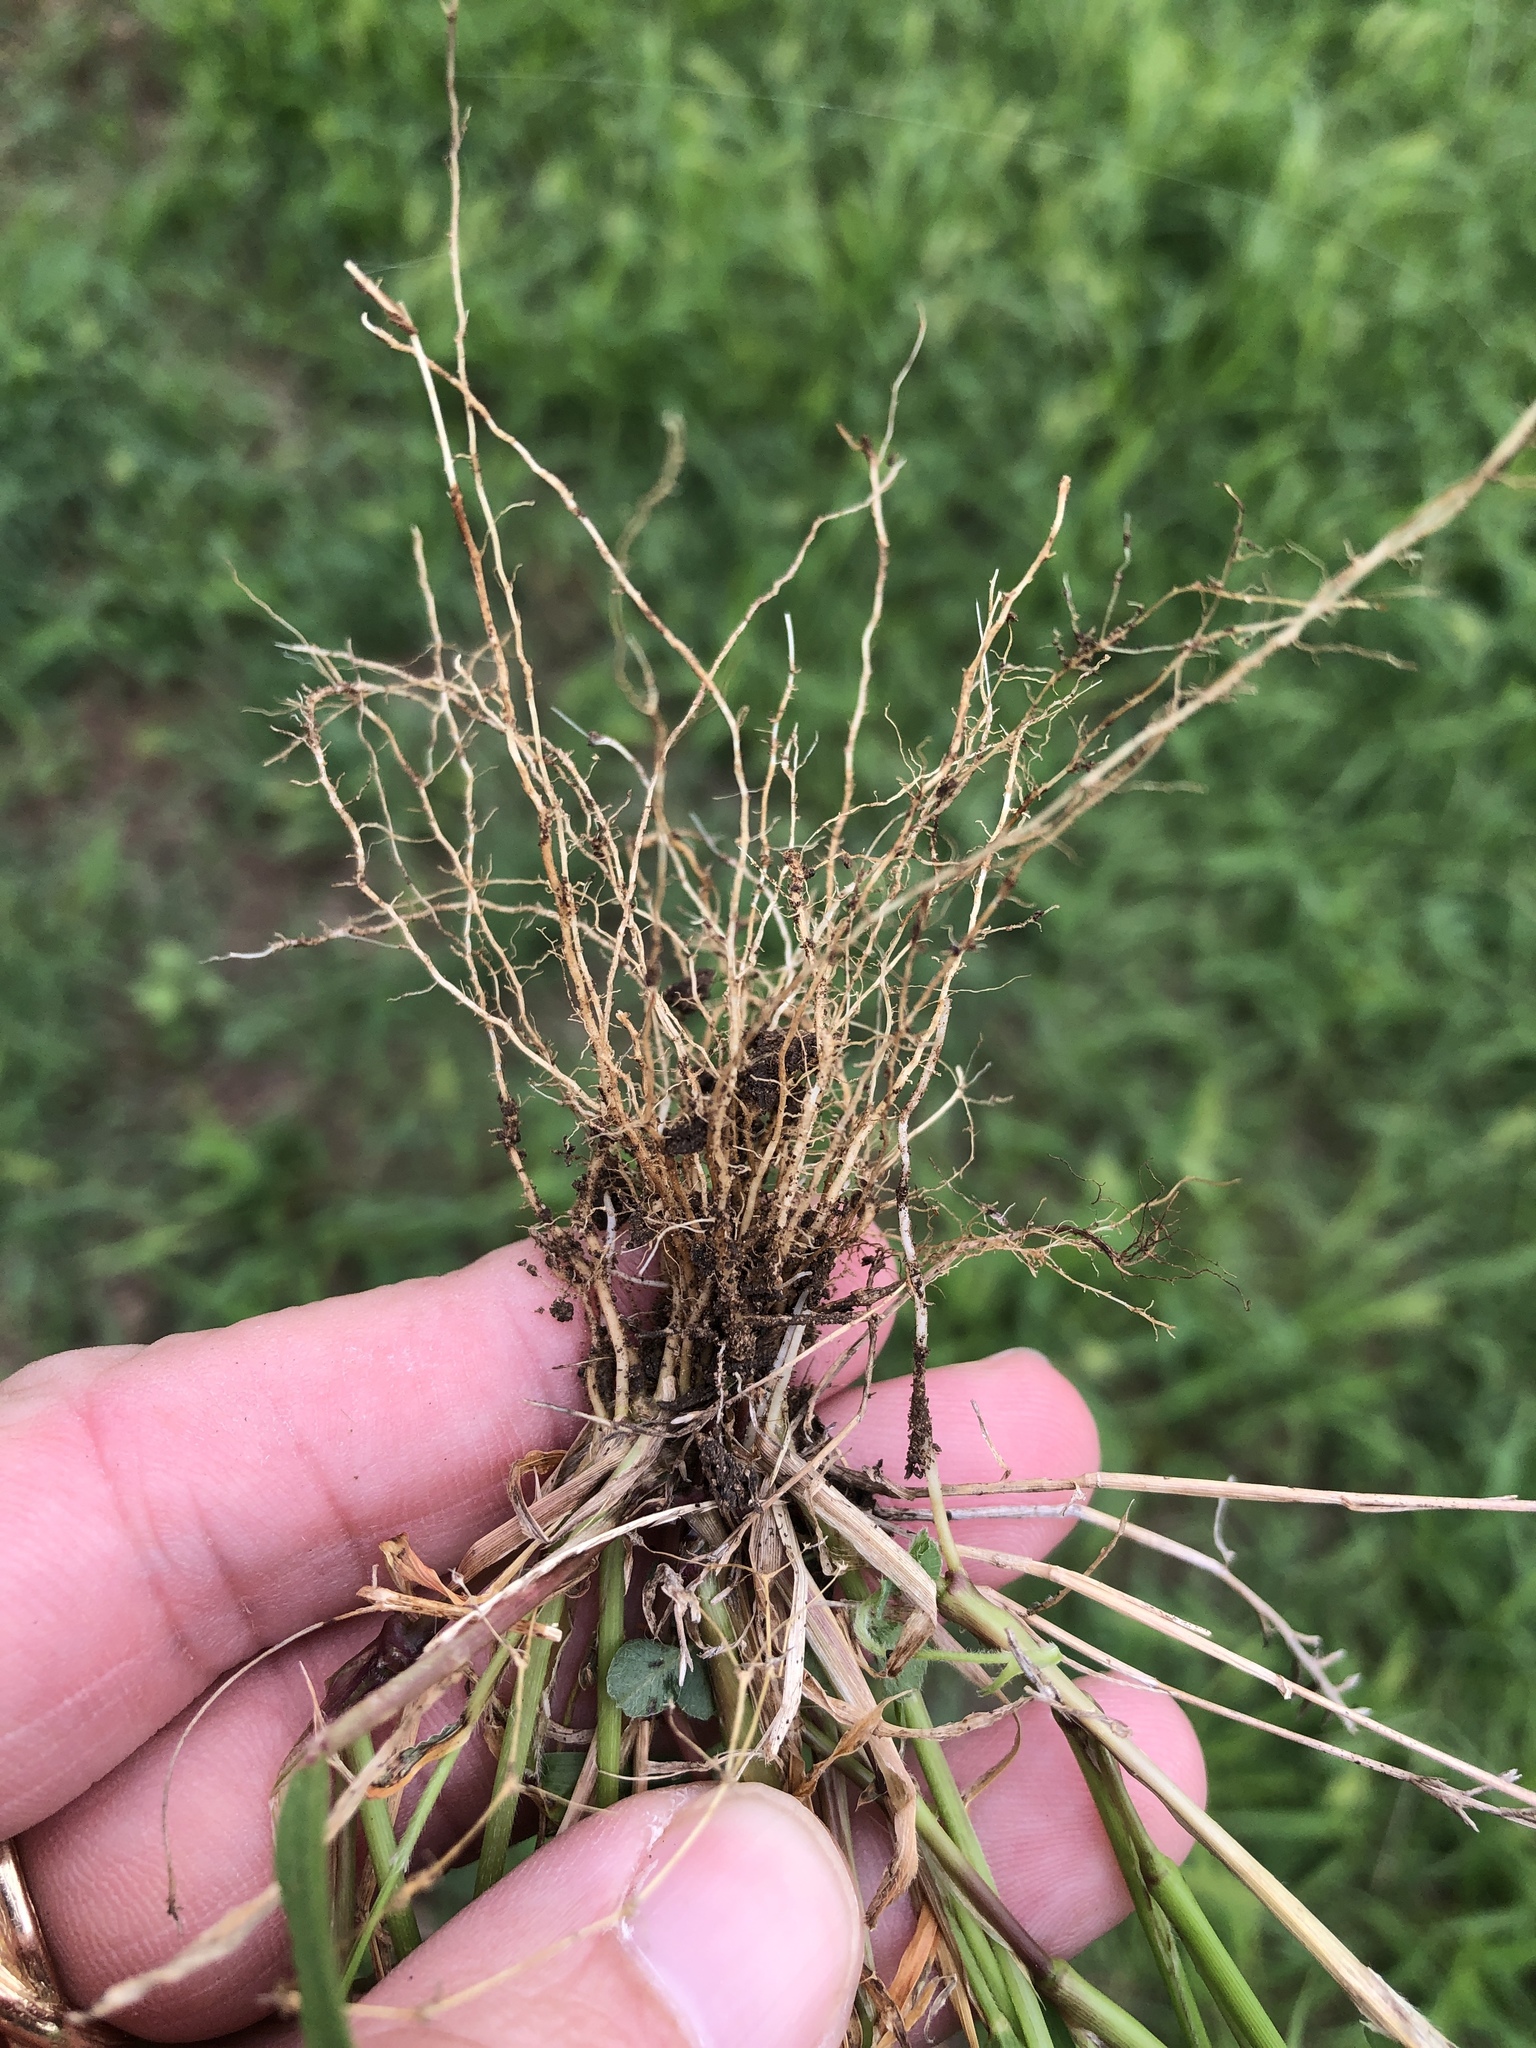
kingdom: Plantae
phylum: Tracheophyta
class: Liliopsida
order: Poales
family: Poaceae
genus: Setaria
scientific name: Setaria viridis
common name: Green bristlegrass
